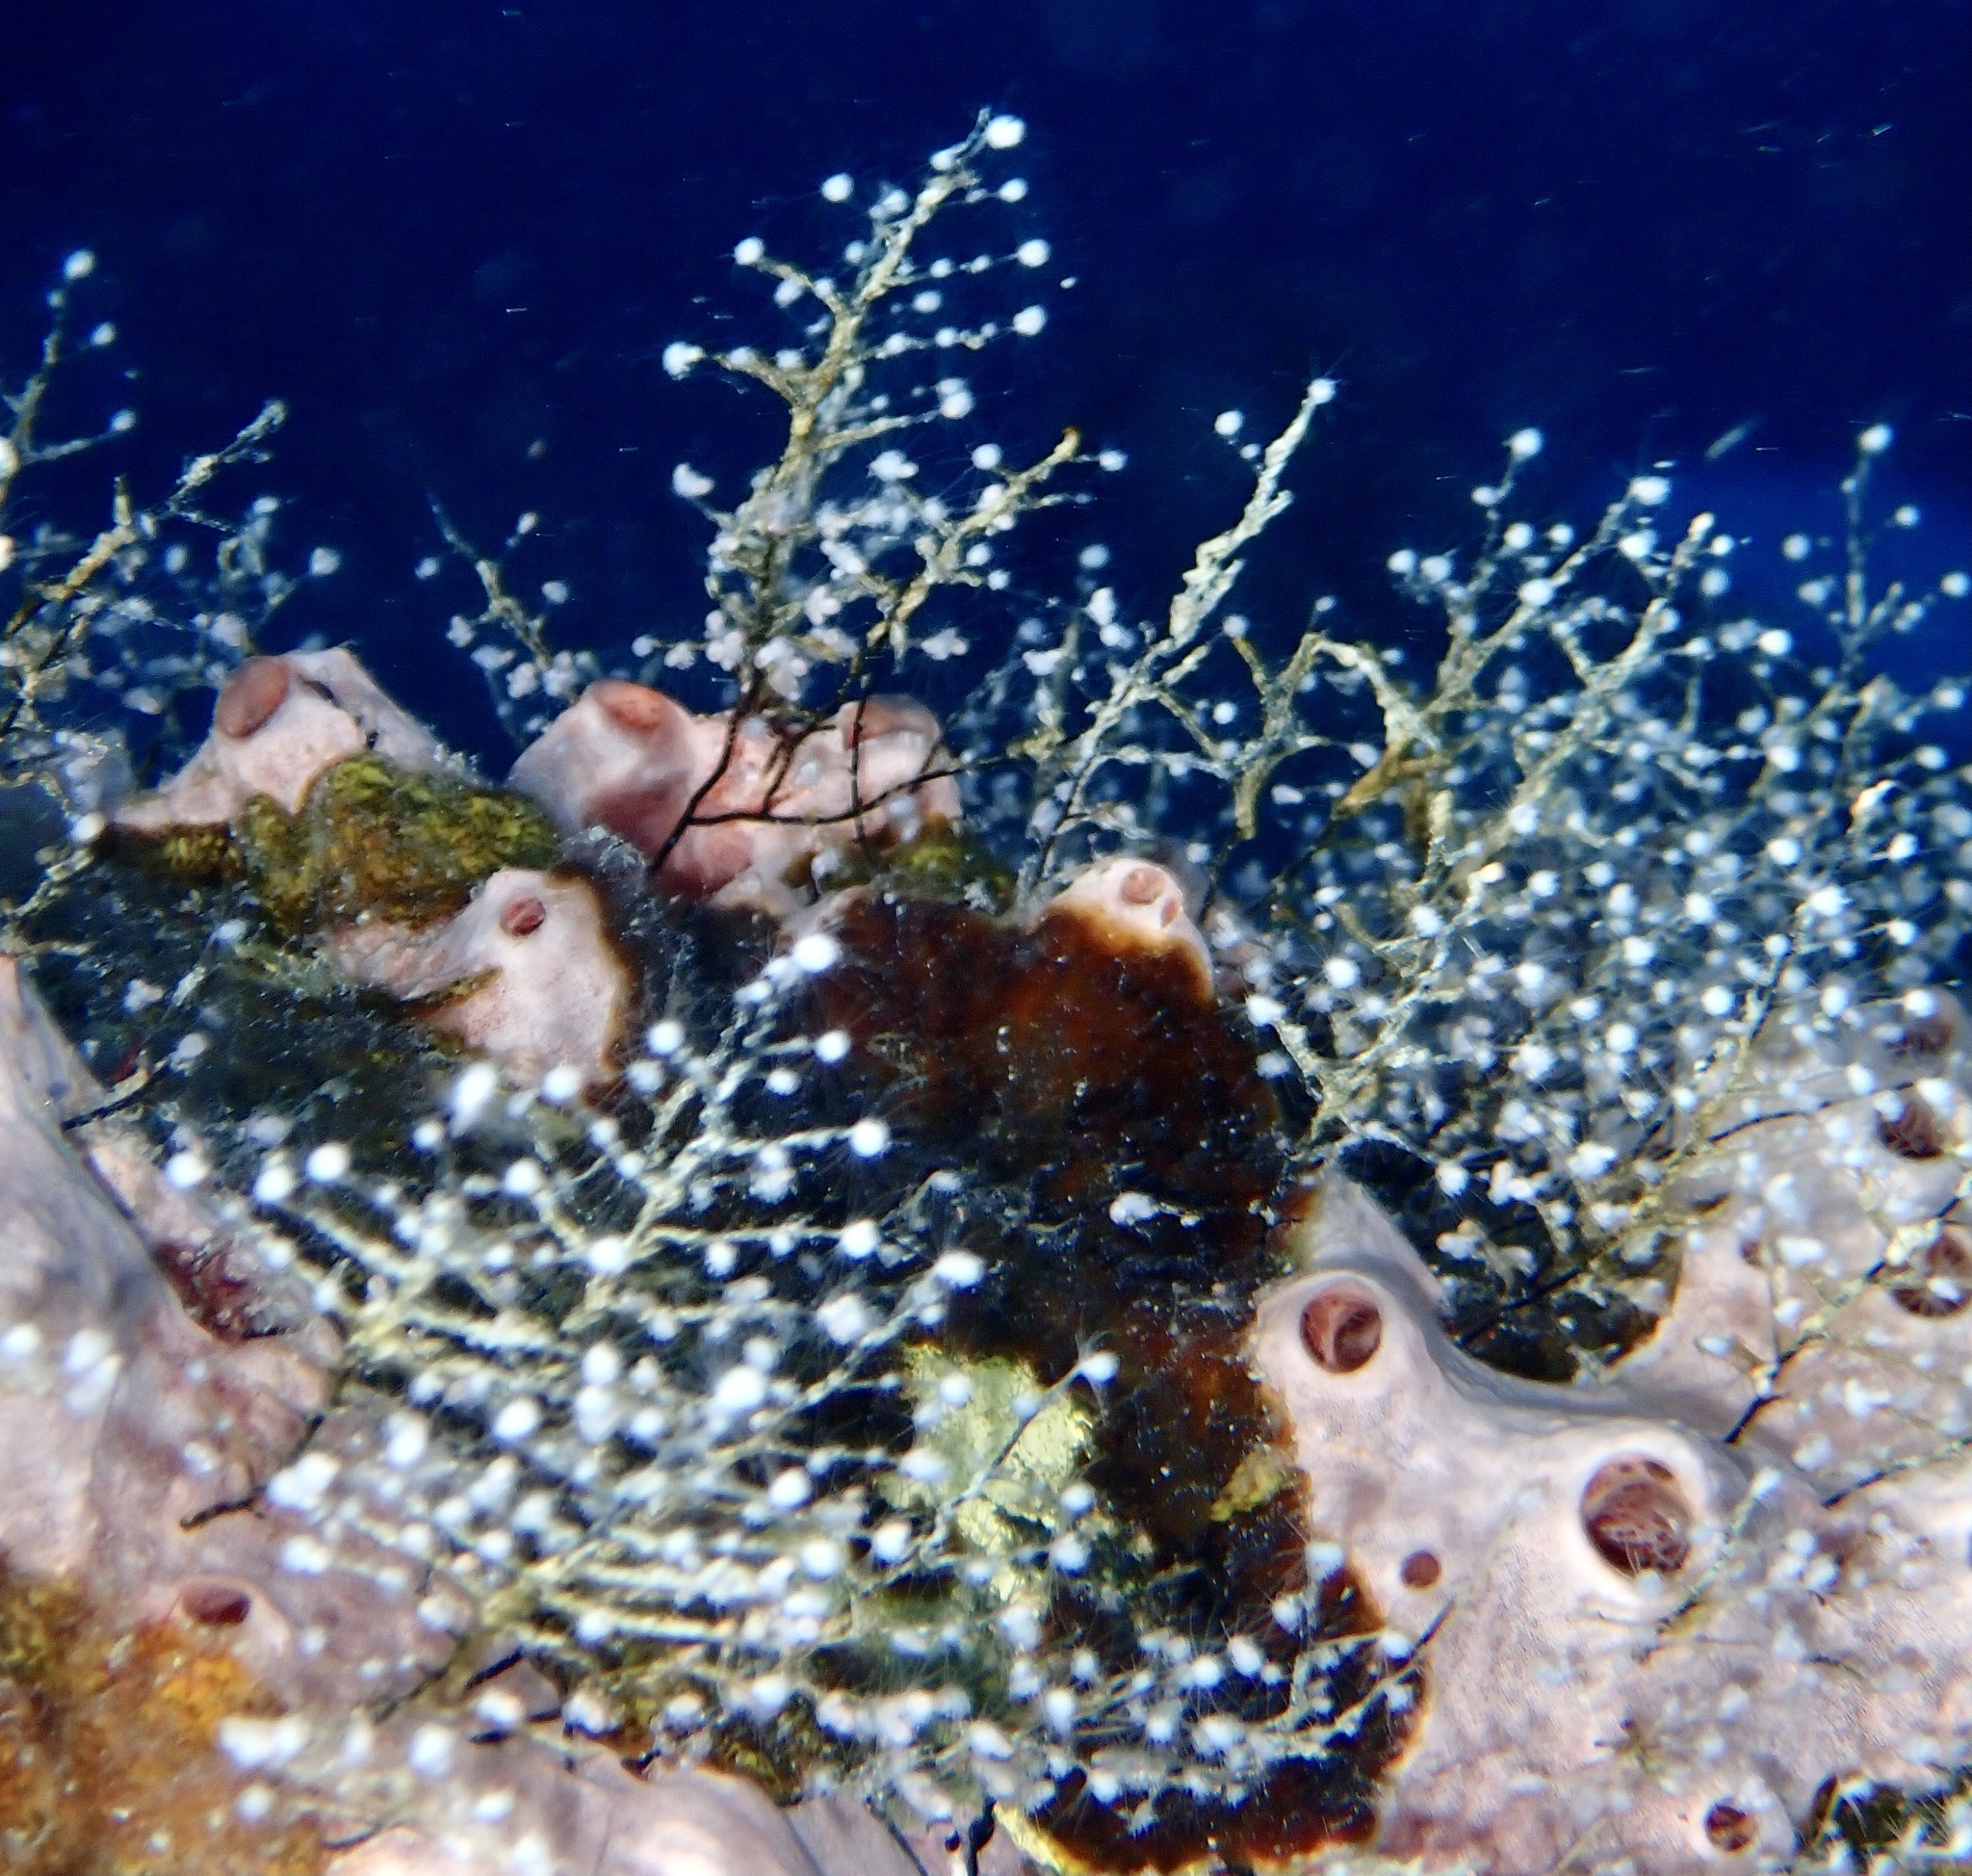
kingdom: Animalia
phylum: Cnidaria
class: Hydrozoa
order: Anthoathecata
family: Pennariidae
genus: Pennaria
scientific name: Pennaria disticha
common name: Feather hydroid
